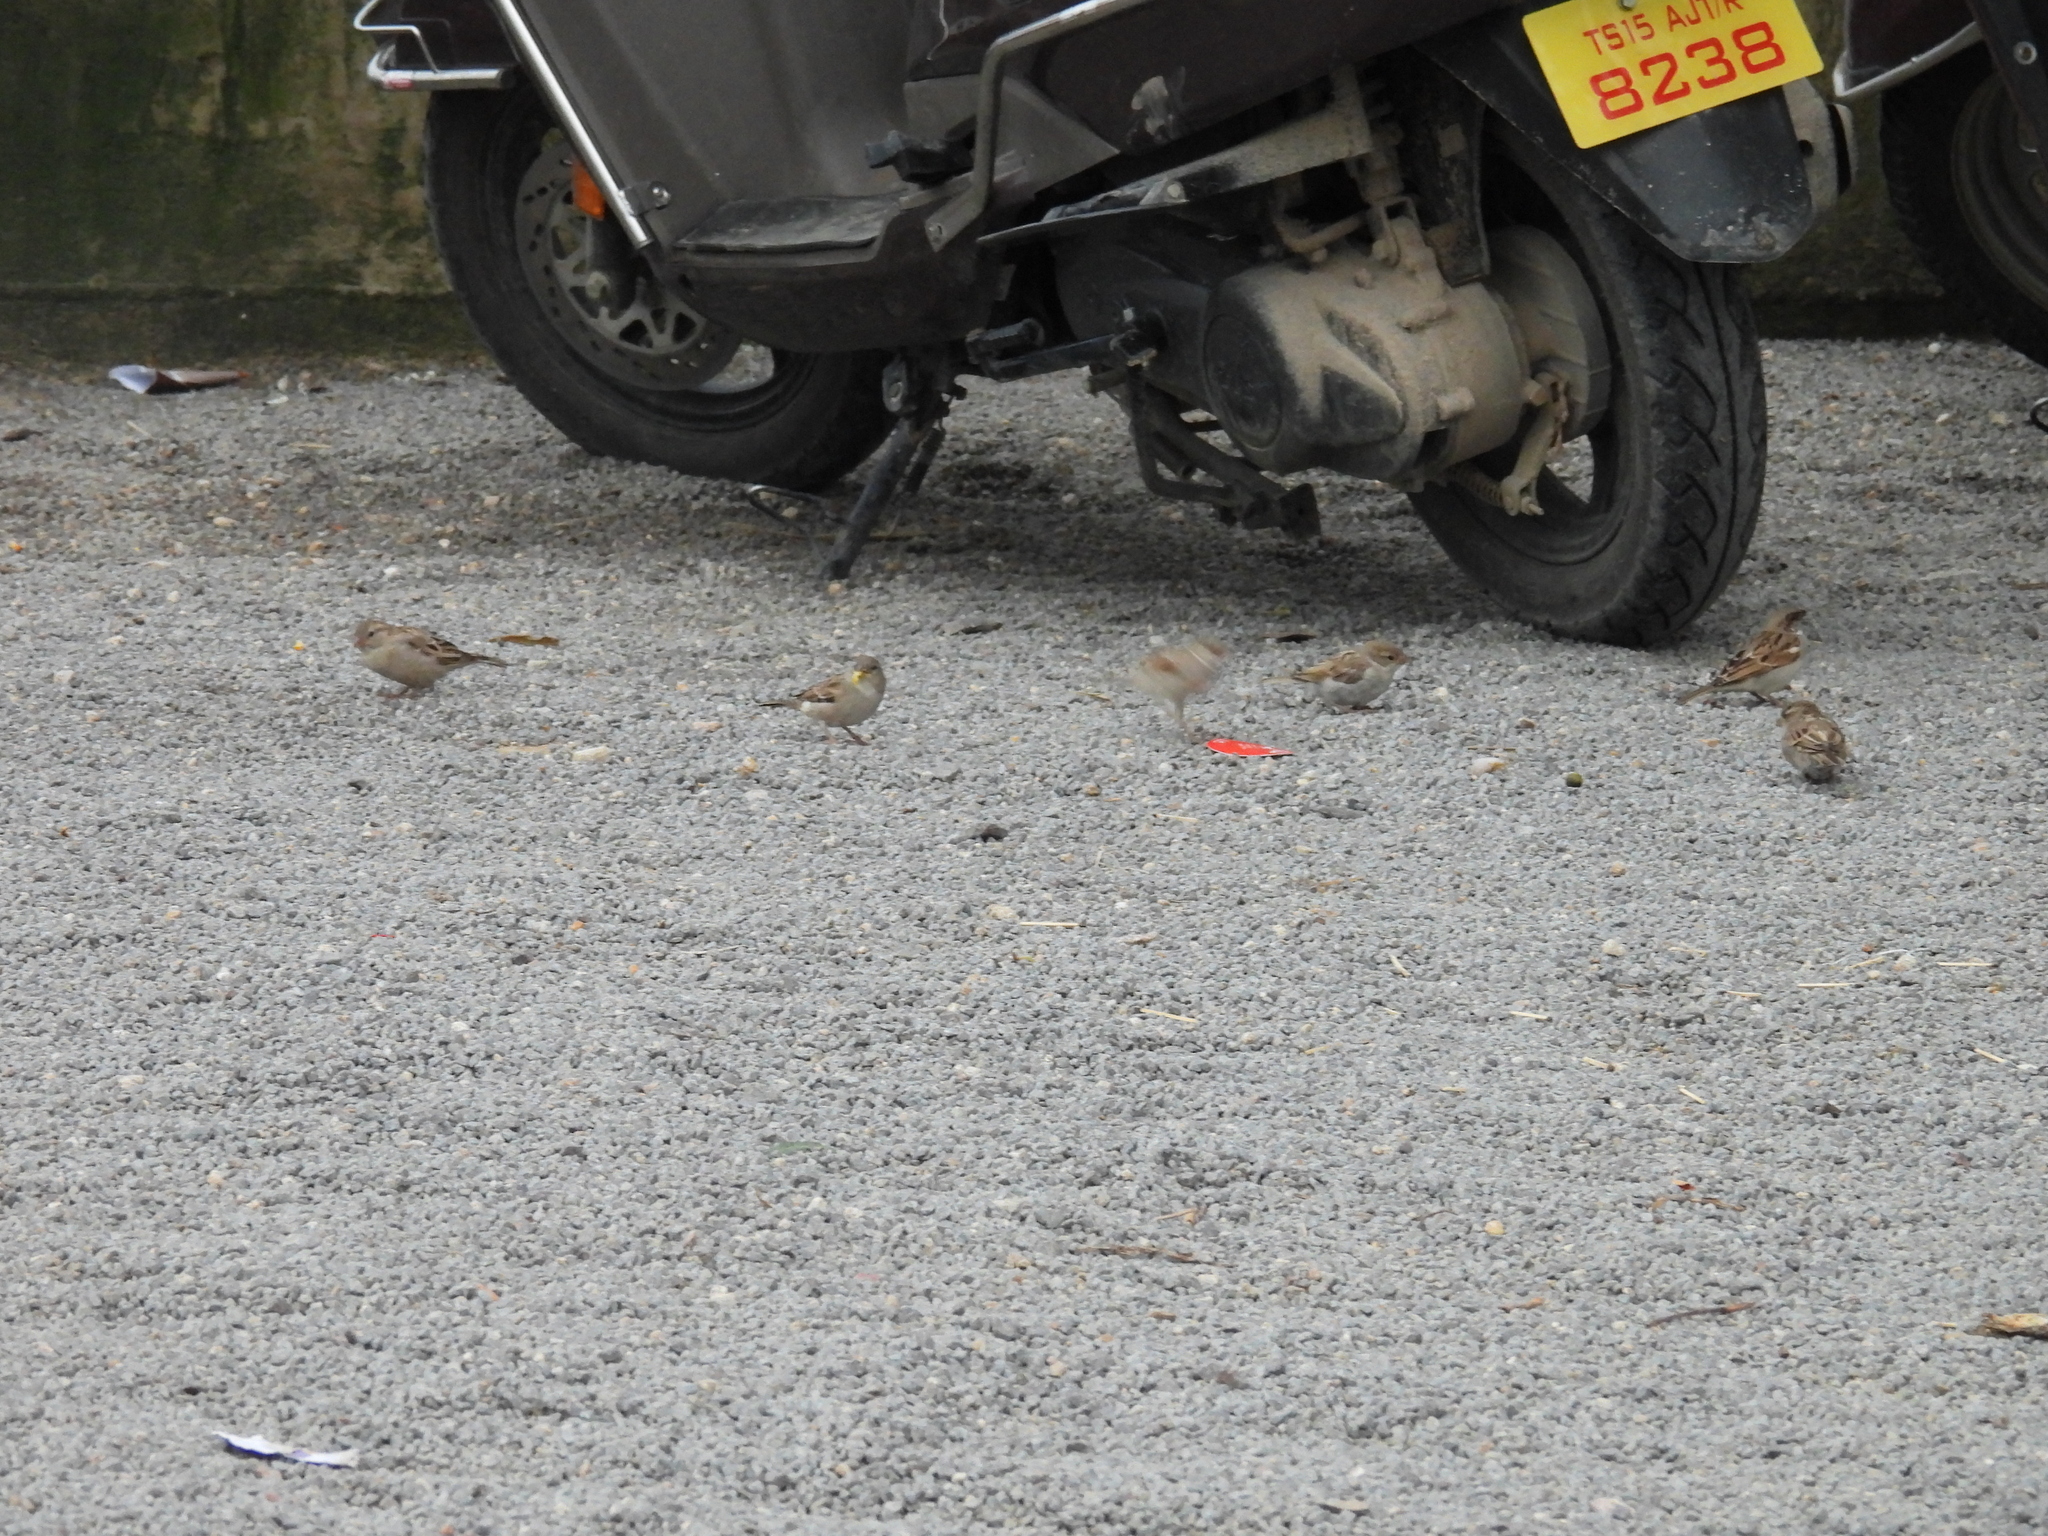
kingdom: Animalia
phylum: Chordata
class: Aves
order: Passeriformes
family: Passeridae
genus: Passer
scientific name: Passer domesticus
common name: House sparrow
